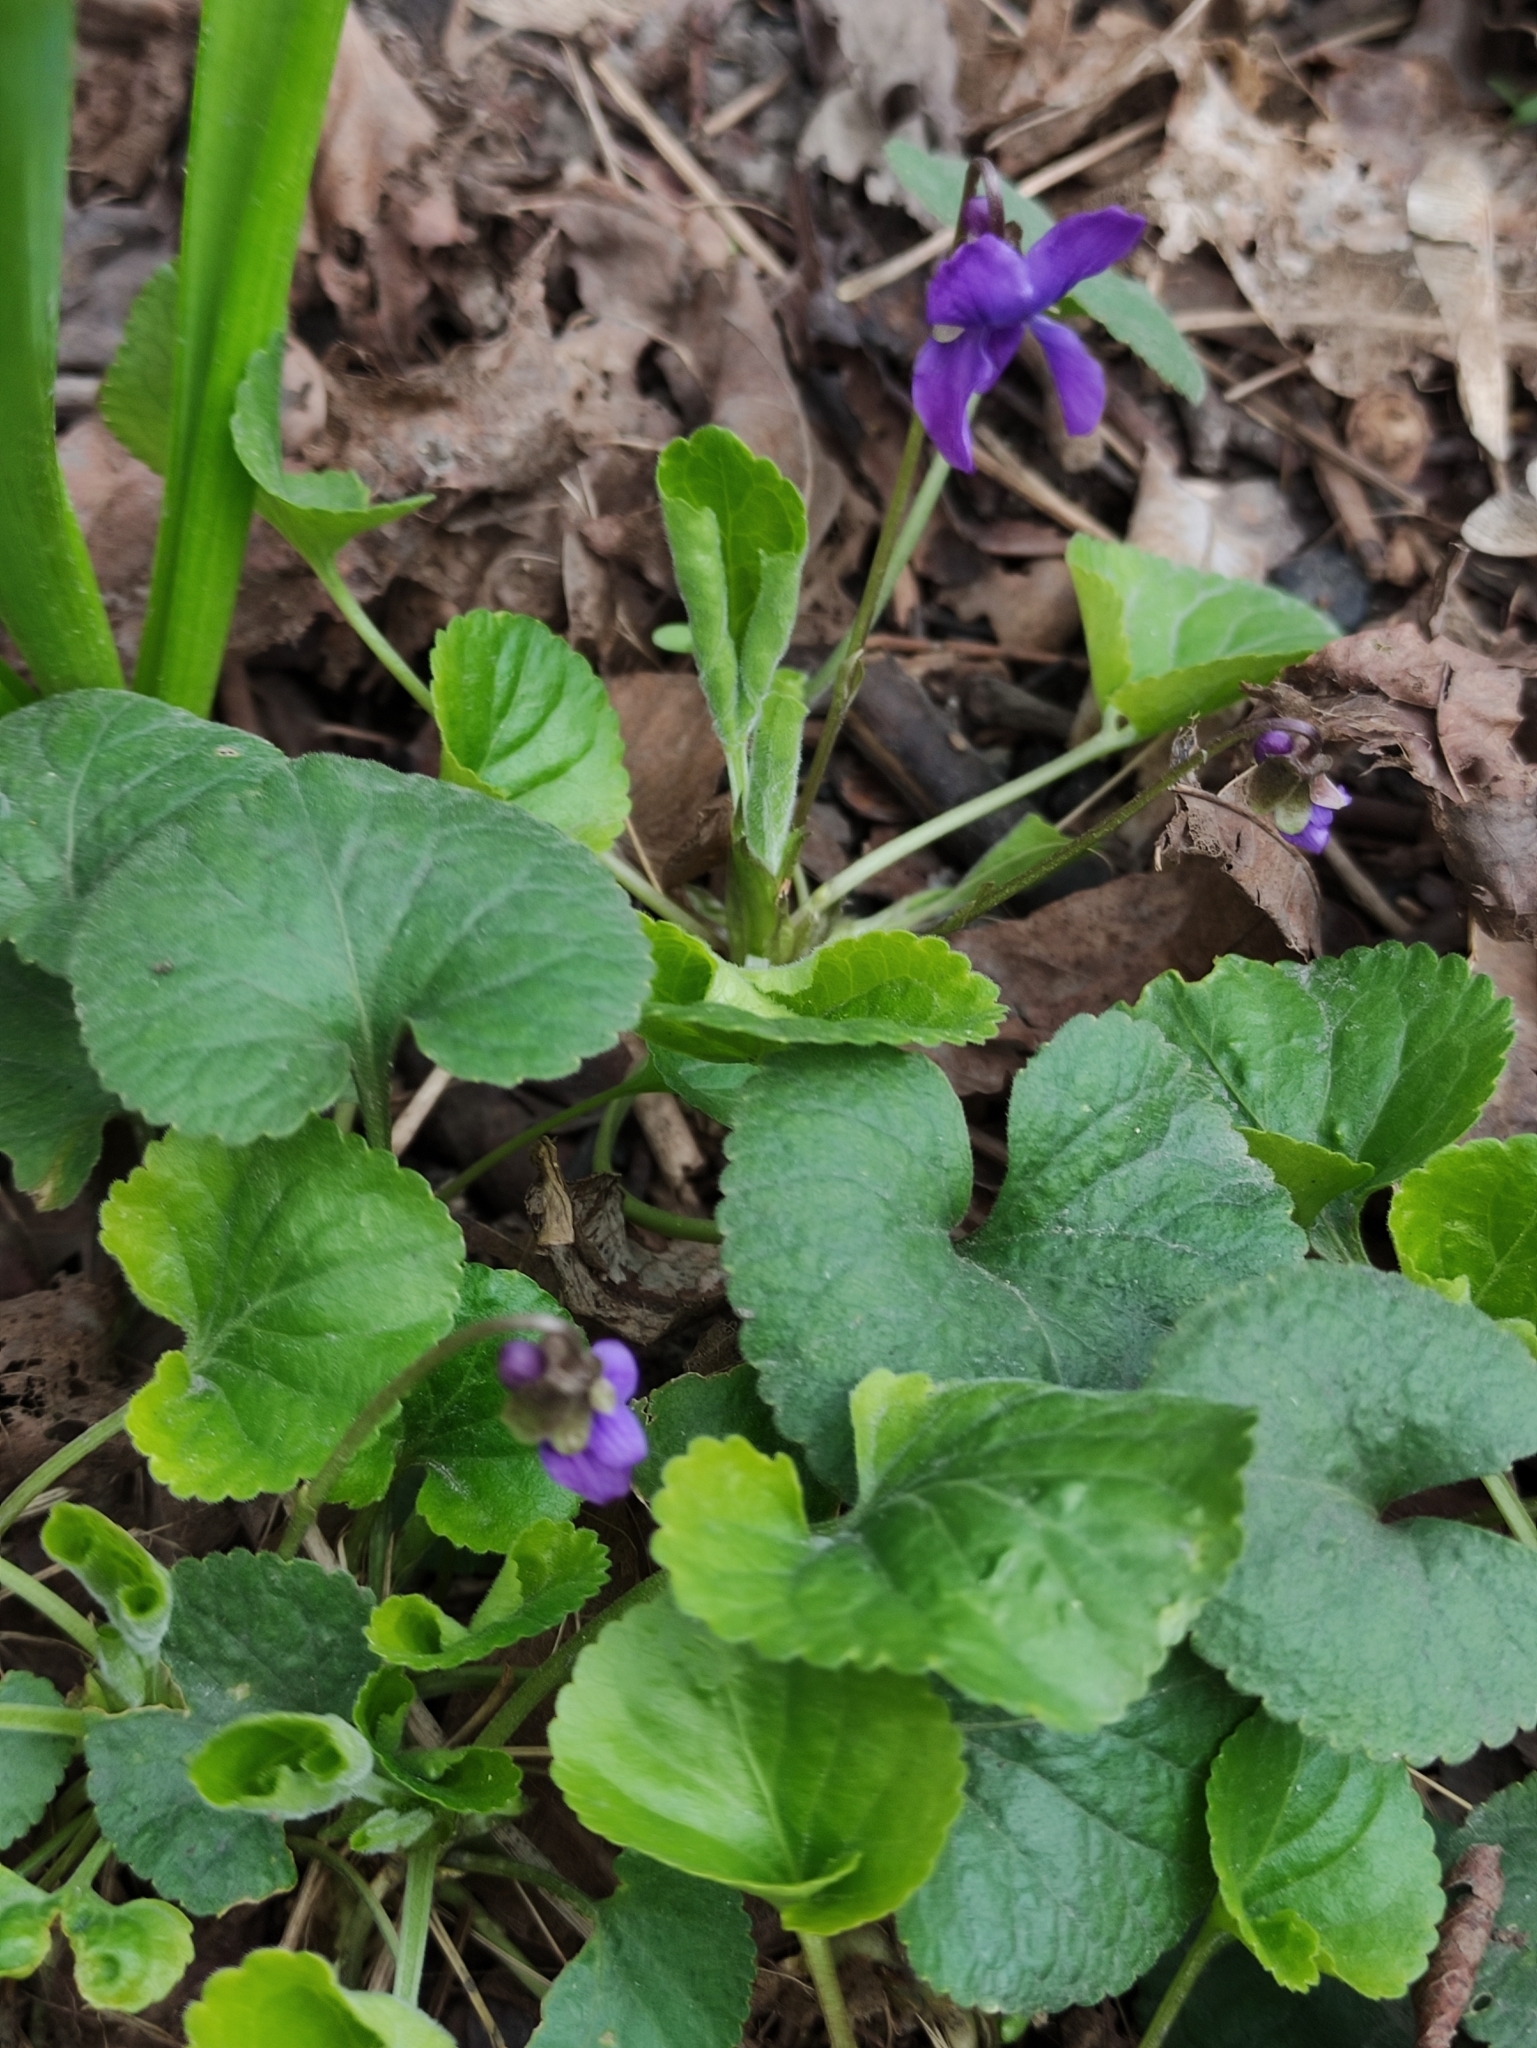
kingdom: Plantae
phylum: Tracheophyta
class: Magnoliopsida
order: Malpighiales
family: Violaceae
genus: Viola
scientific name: Viola odorata
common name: Sweet violet
